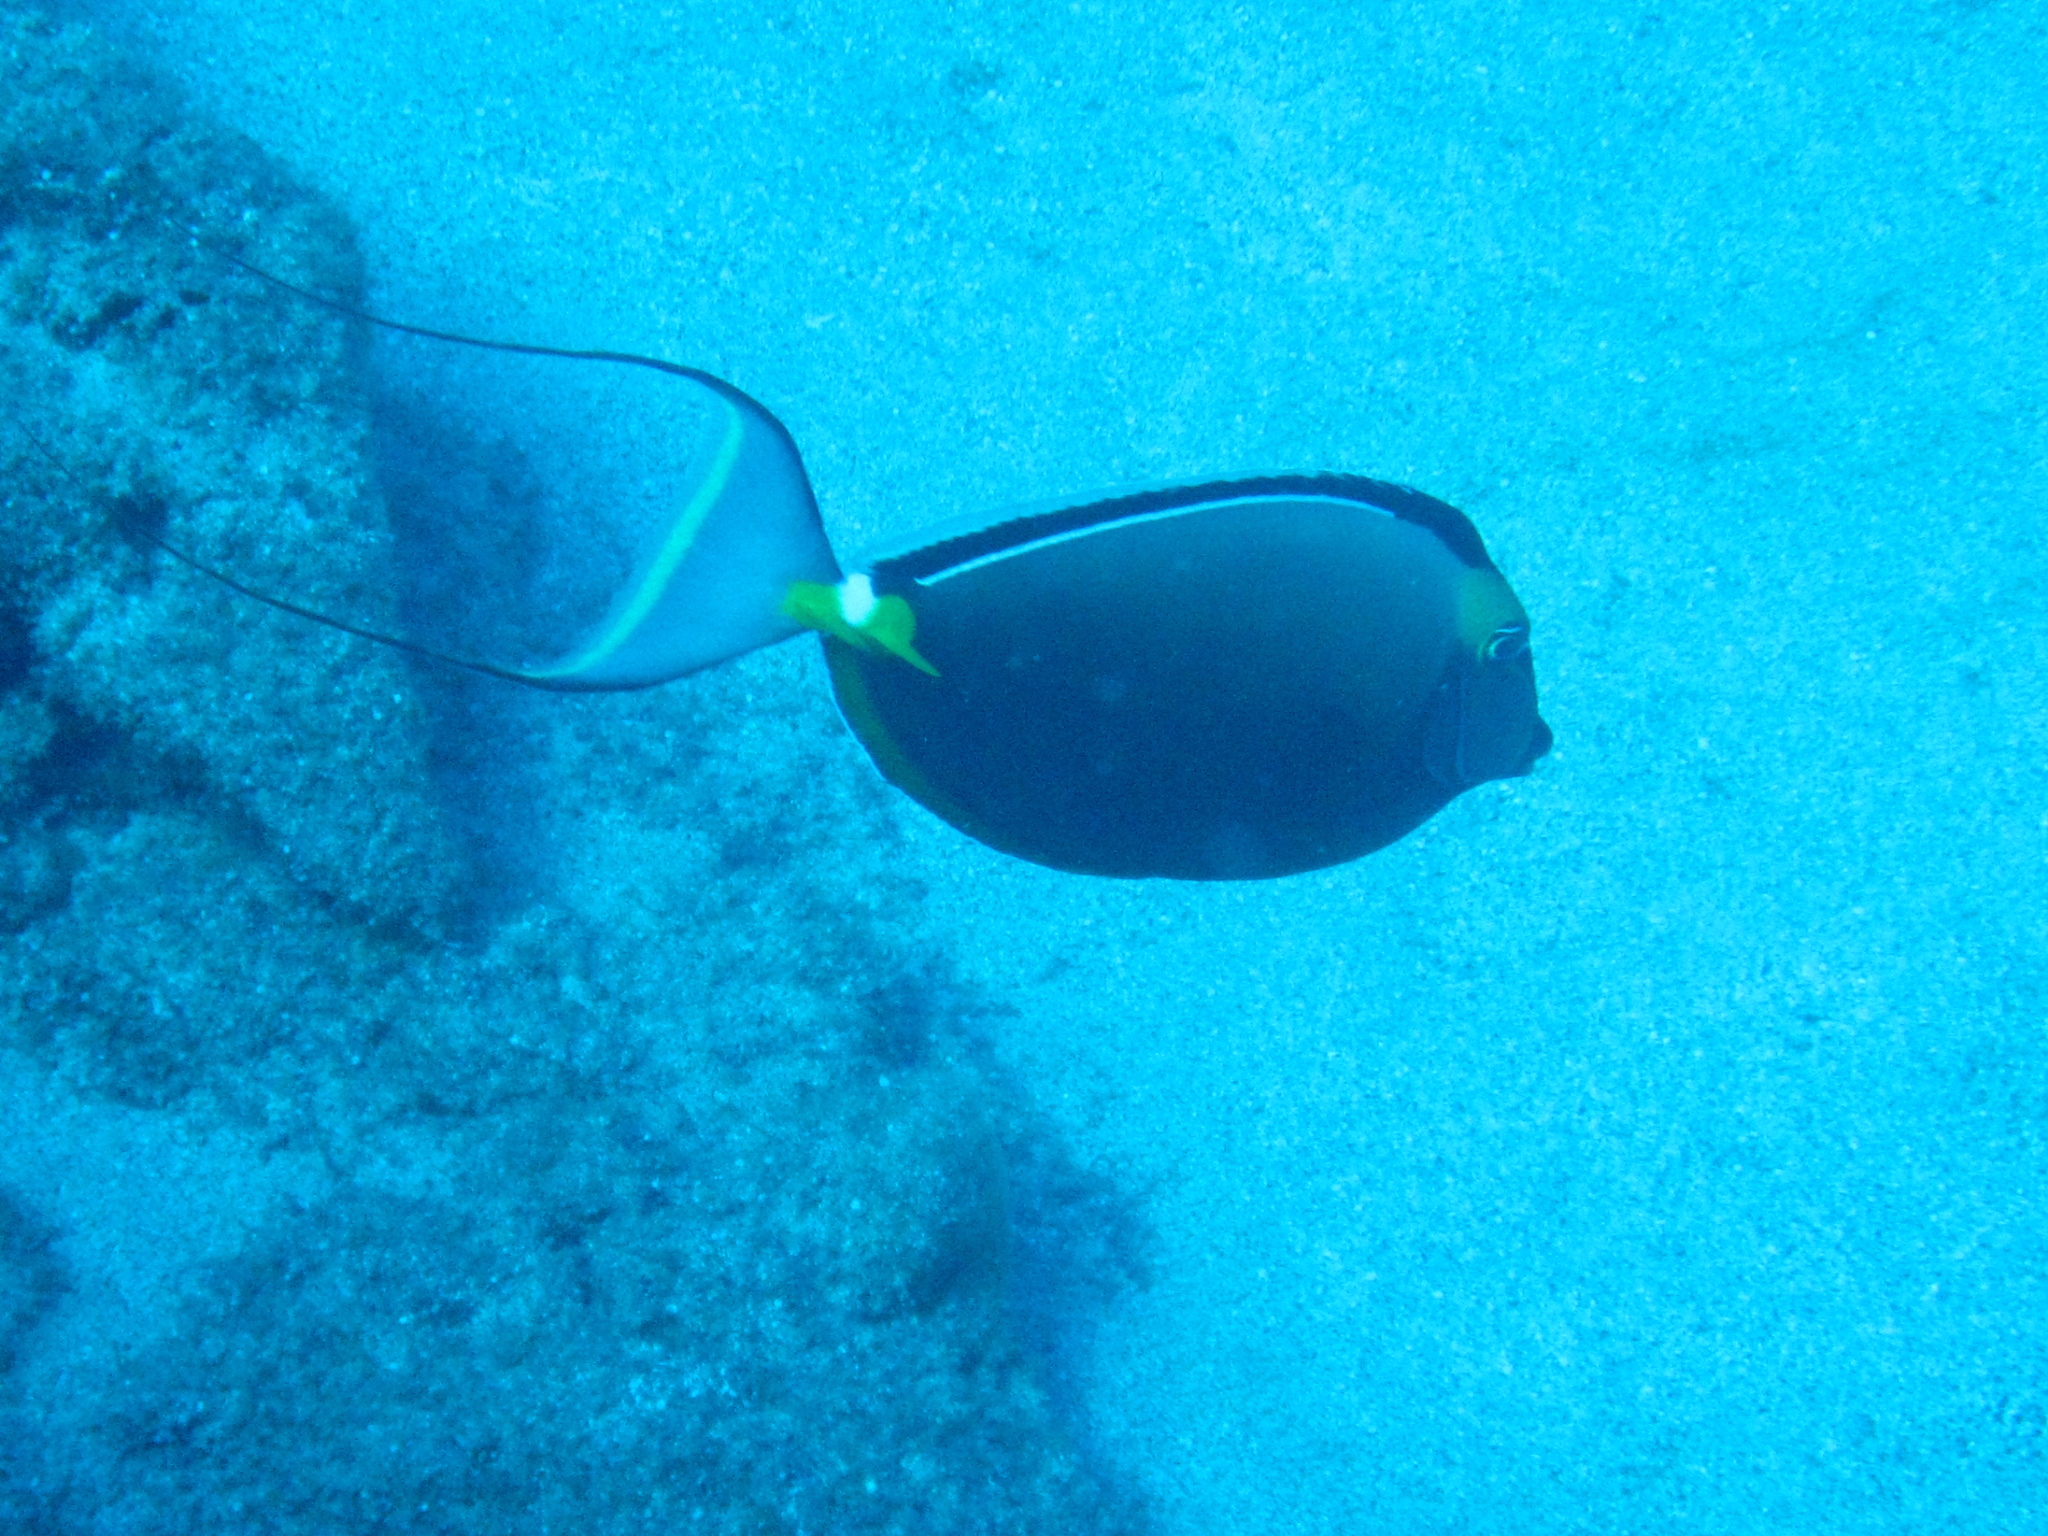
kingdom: Animalia
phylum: Chordata
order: Perciformes
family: Acanthuridae
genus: Naso
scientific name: Naso lituratus
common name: Orangespine unicornfish
